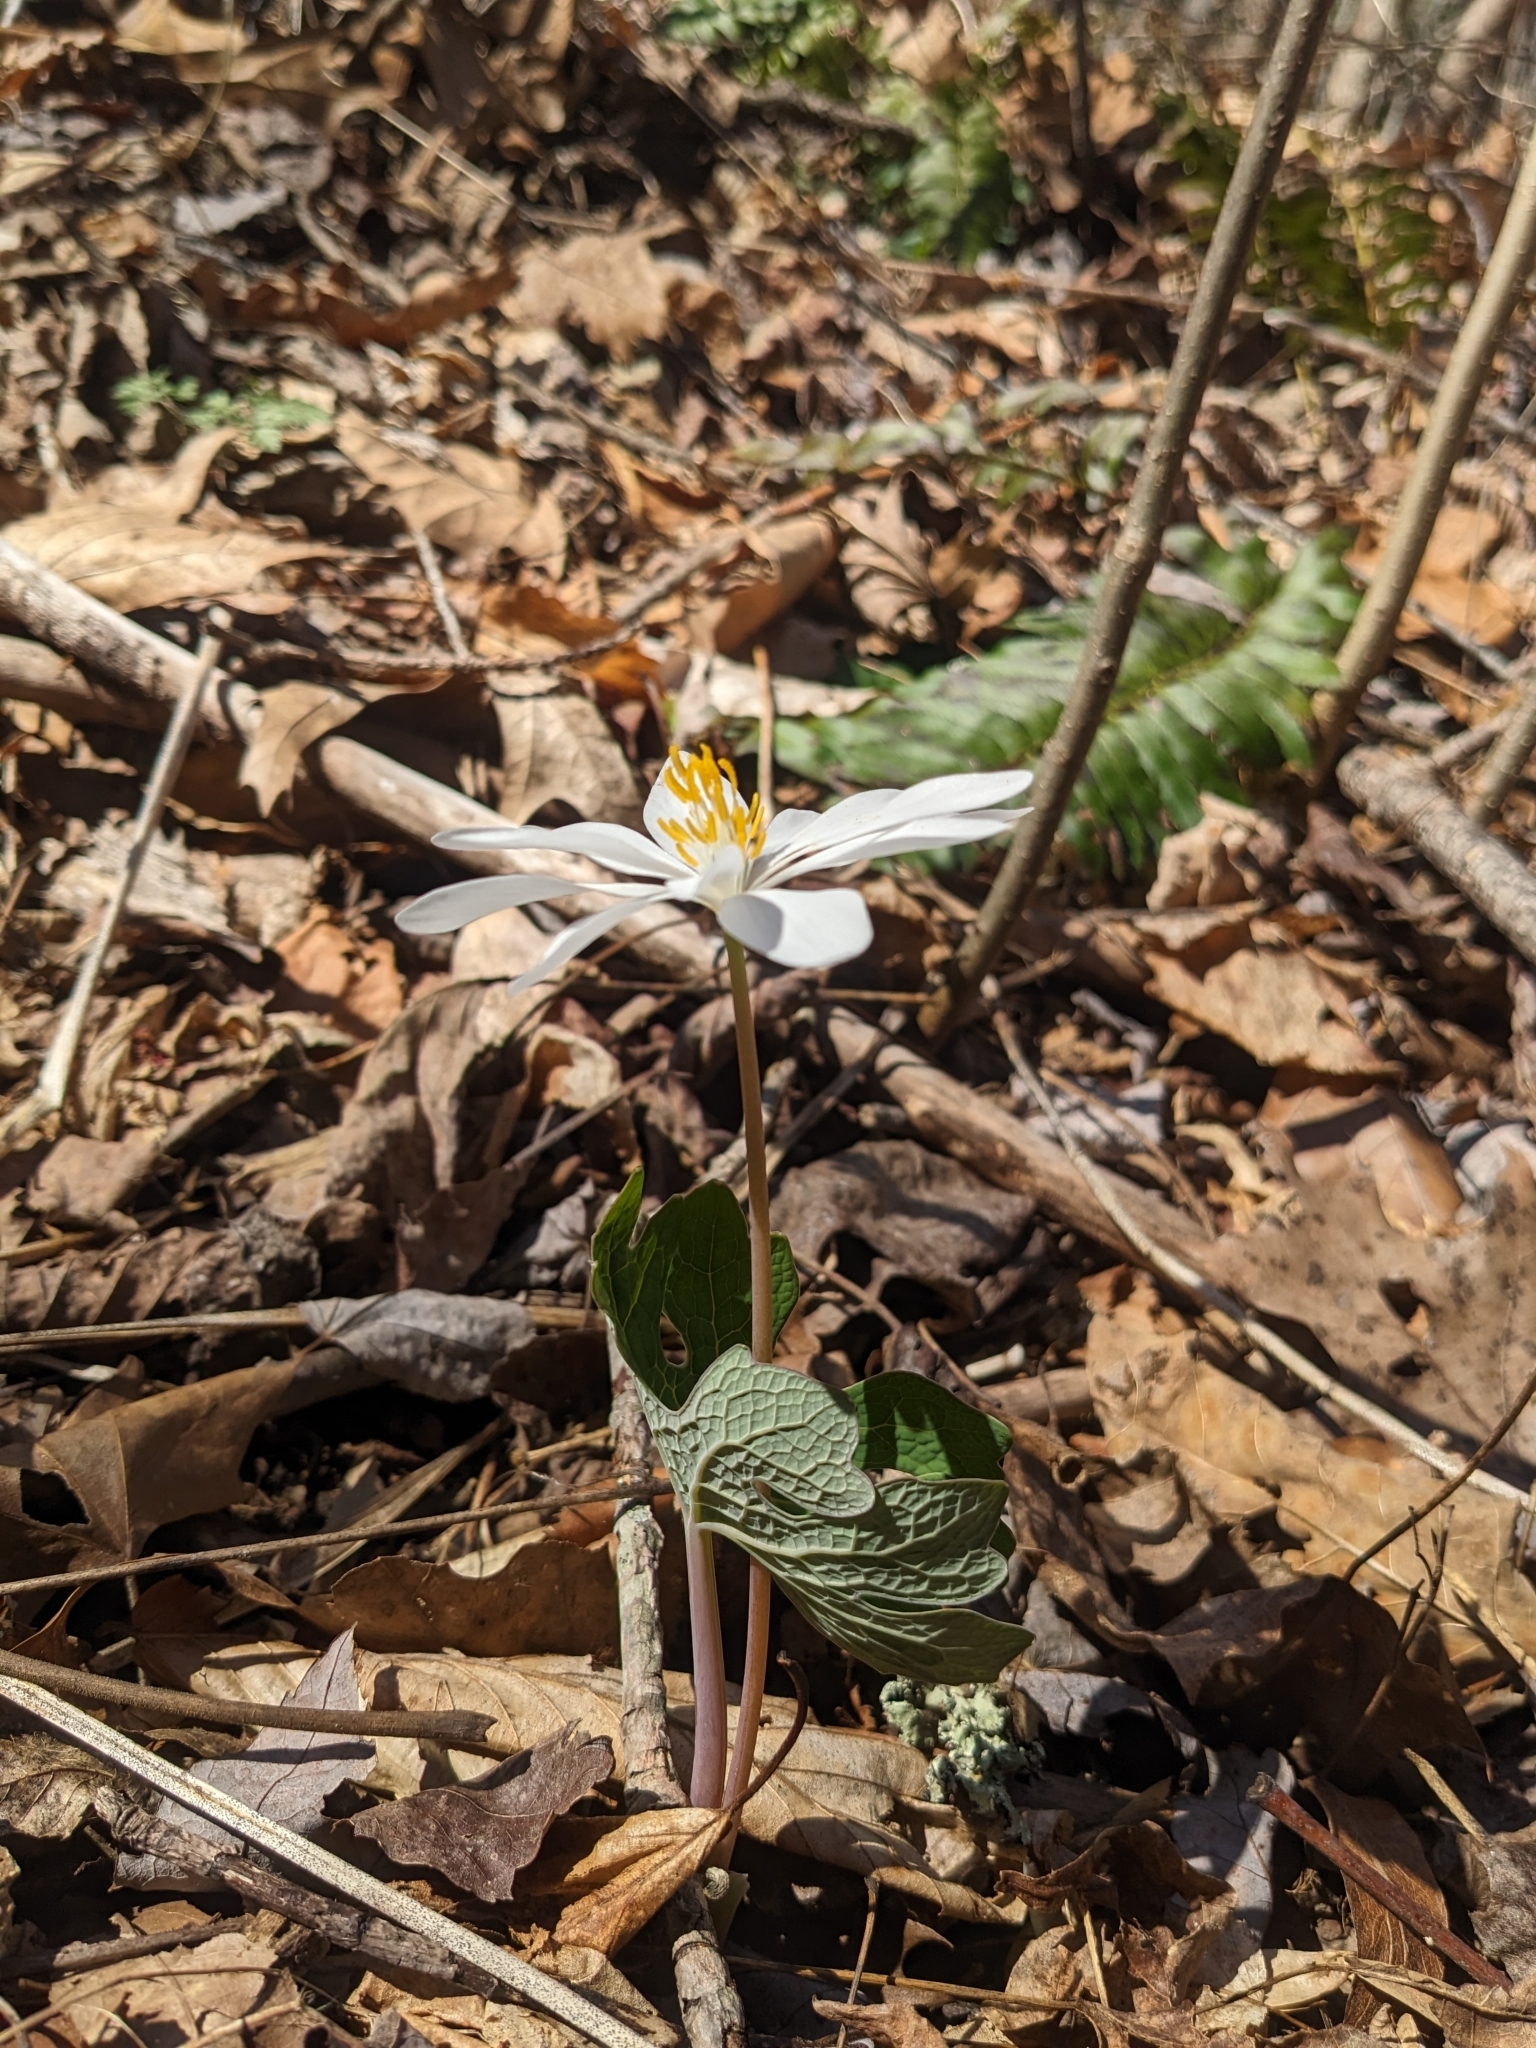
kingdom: Plantae
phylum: Tracheophyta
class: Magnoliopsida
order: Ranunculales
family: Papaveraceae
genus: Sanguinaria
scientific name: Sanguinaria canadensis
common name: Bloodroot
